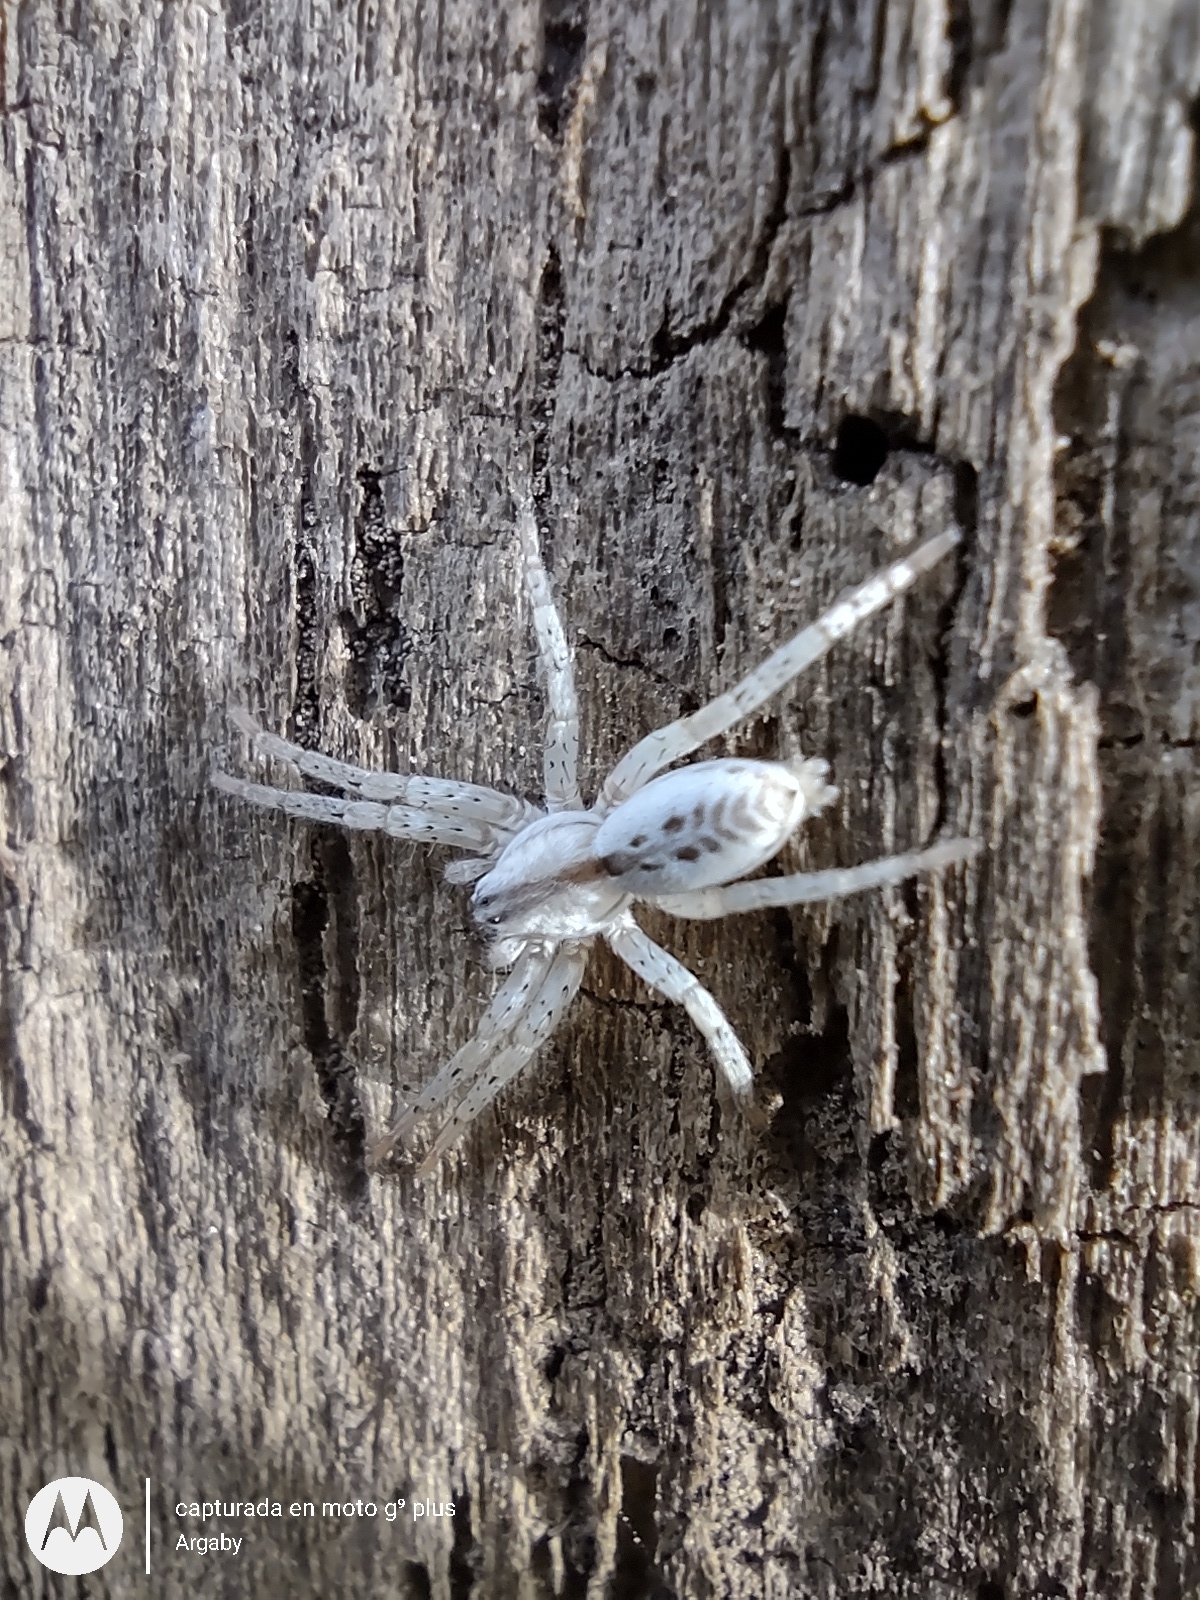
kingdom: Animalia
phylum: Arthropoda
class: Arachnida
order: Araneae
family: Anyphaenidae
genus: Arachosia
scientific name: Arachosia praesignis
